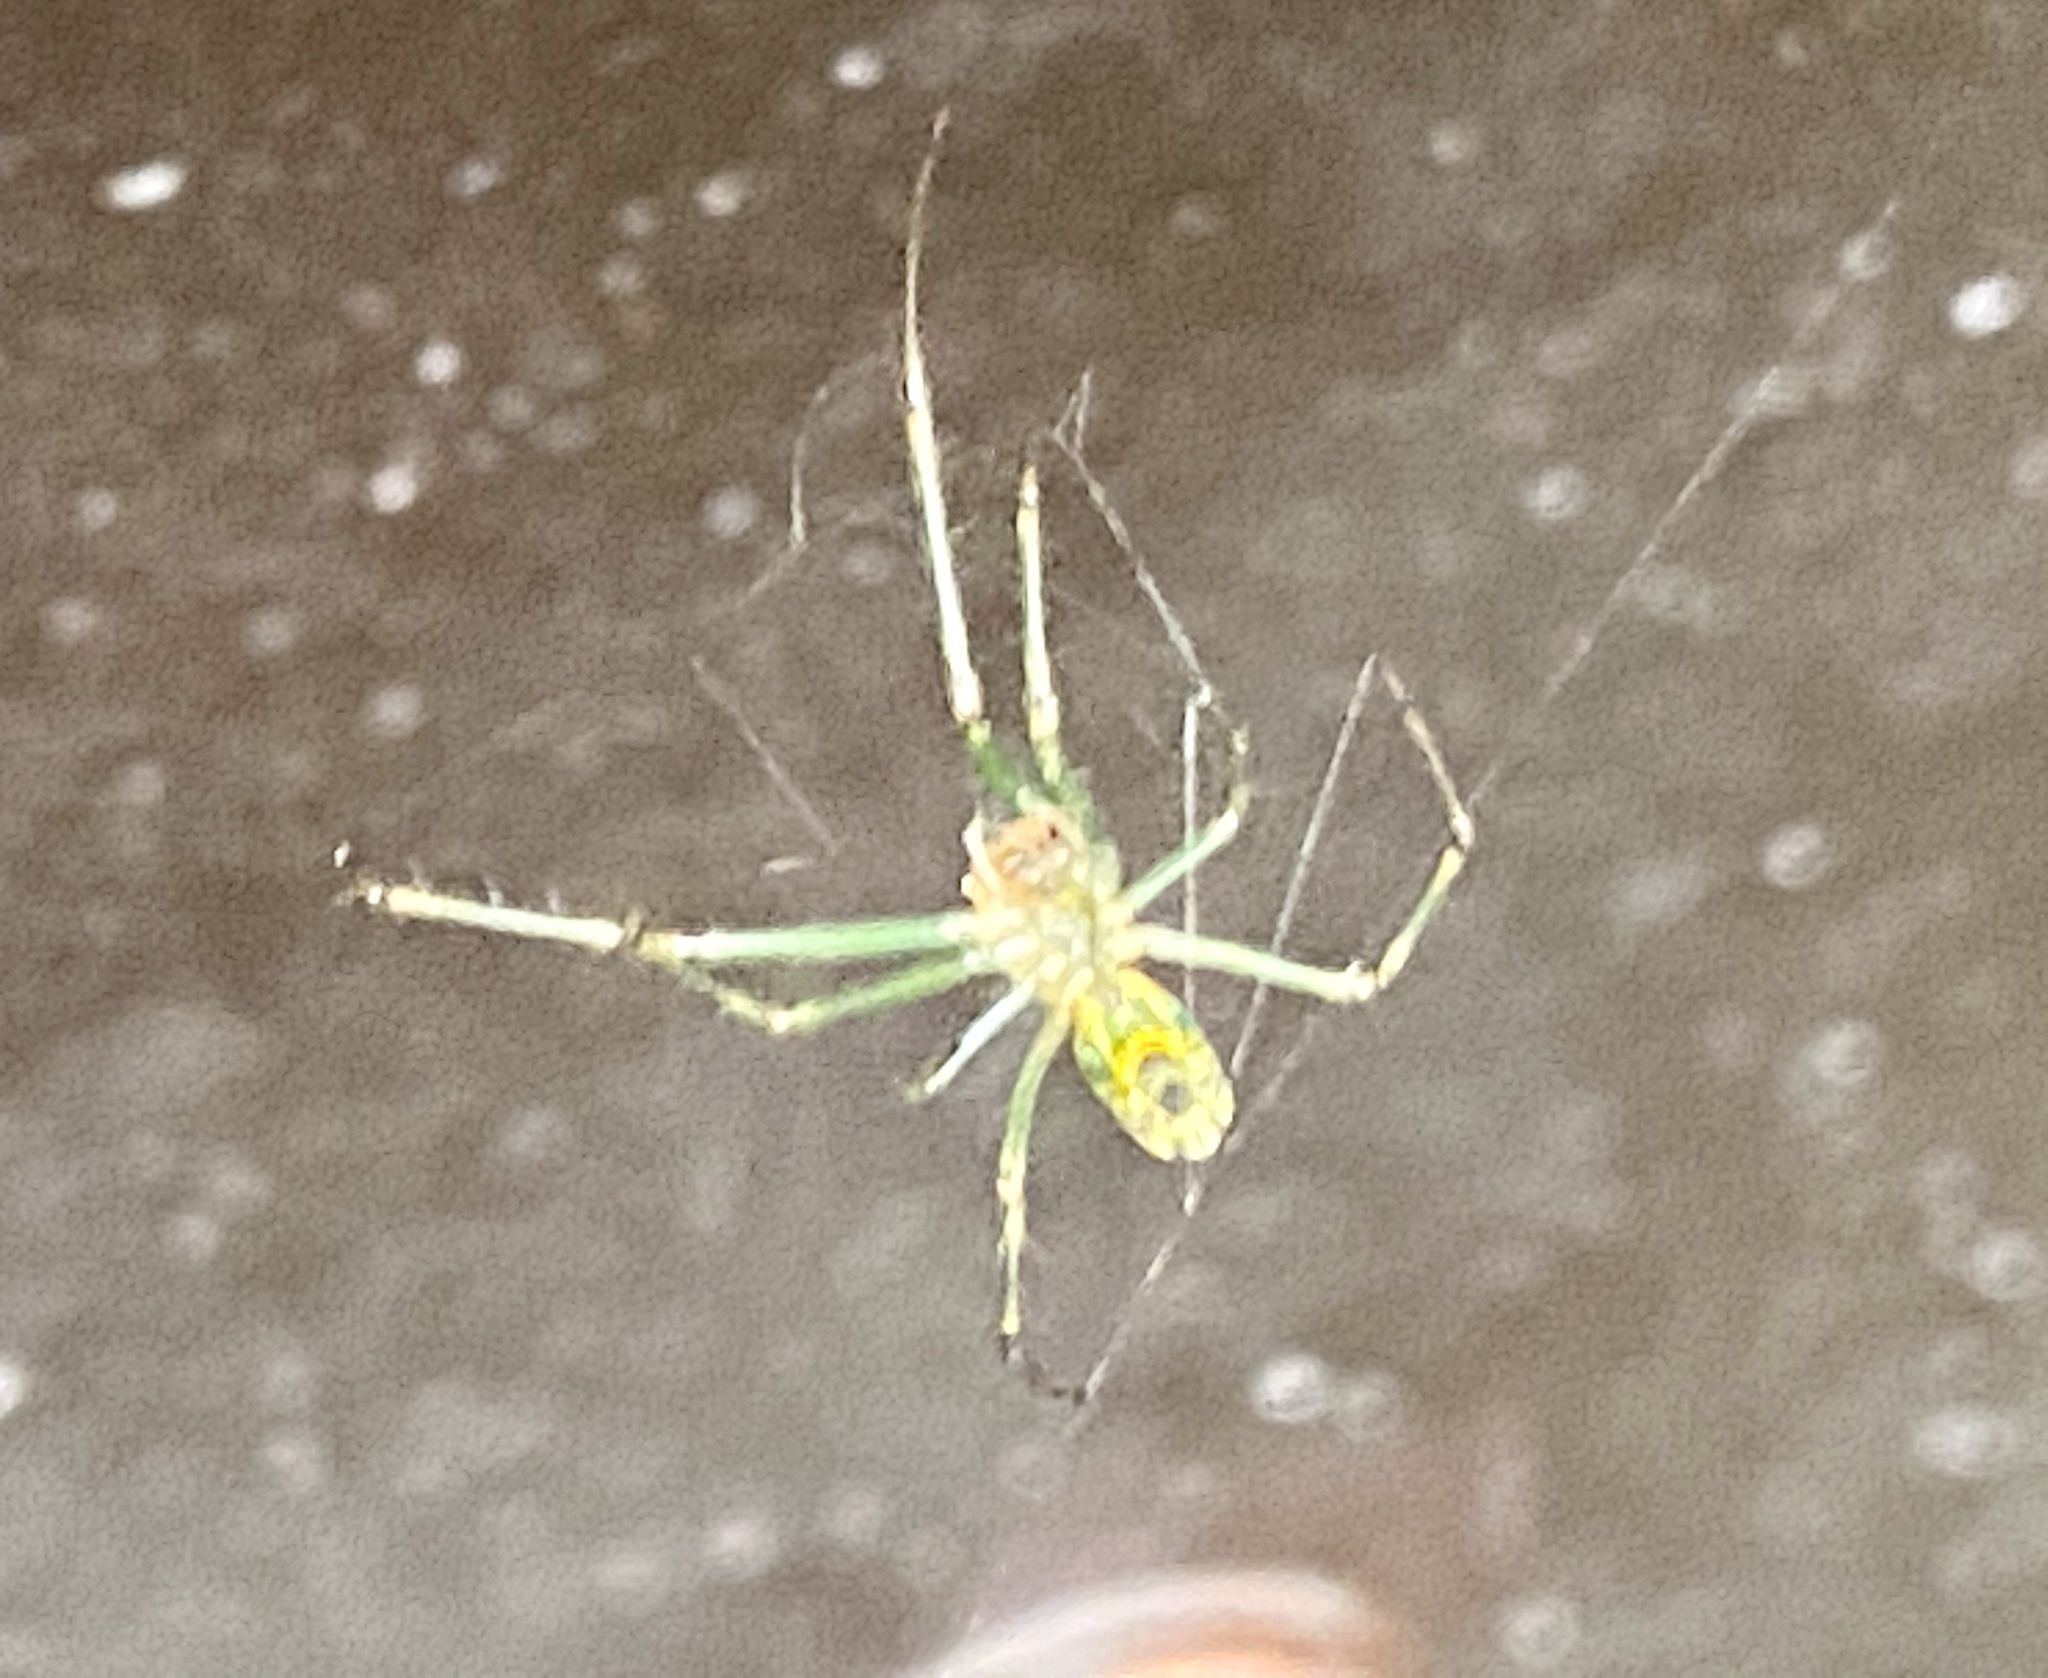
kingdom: Animalia
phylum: Arthropoda
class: Arachnida
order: Araneae
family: Tetragnathidae
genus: Leucauge
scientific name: Leucauge
